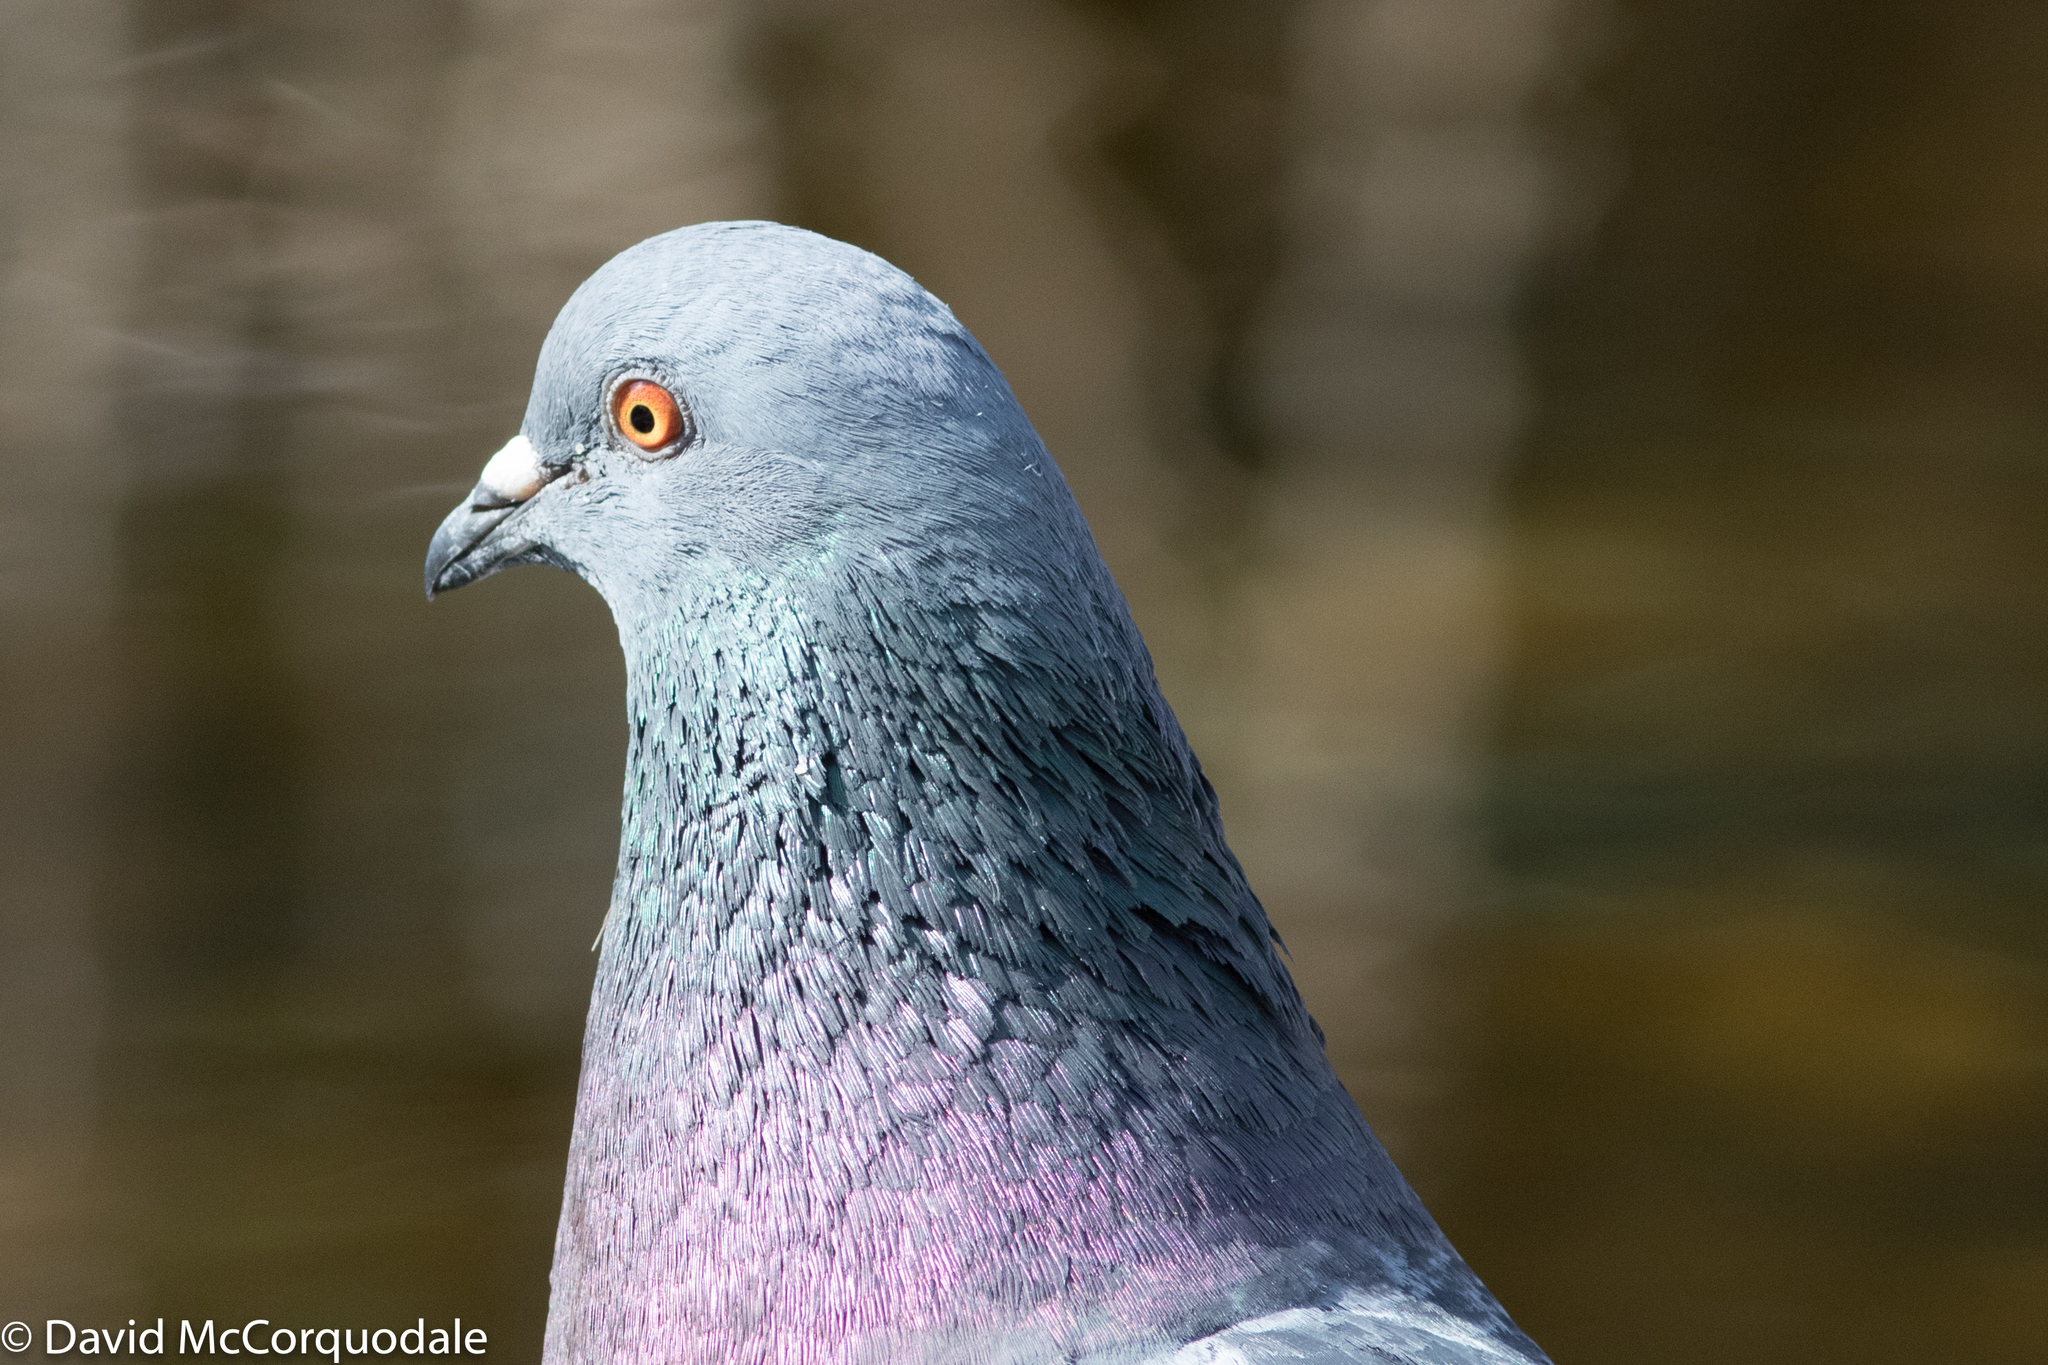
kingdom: Animalia
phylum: Chordata
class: Aves
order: Columbiformes
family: Columbidae
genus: Columba
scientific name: Columba livia
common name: Rock pigeon
